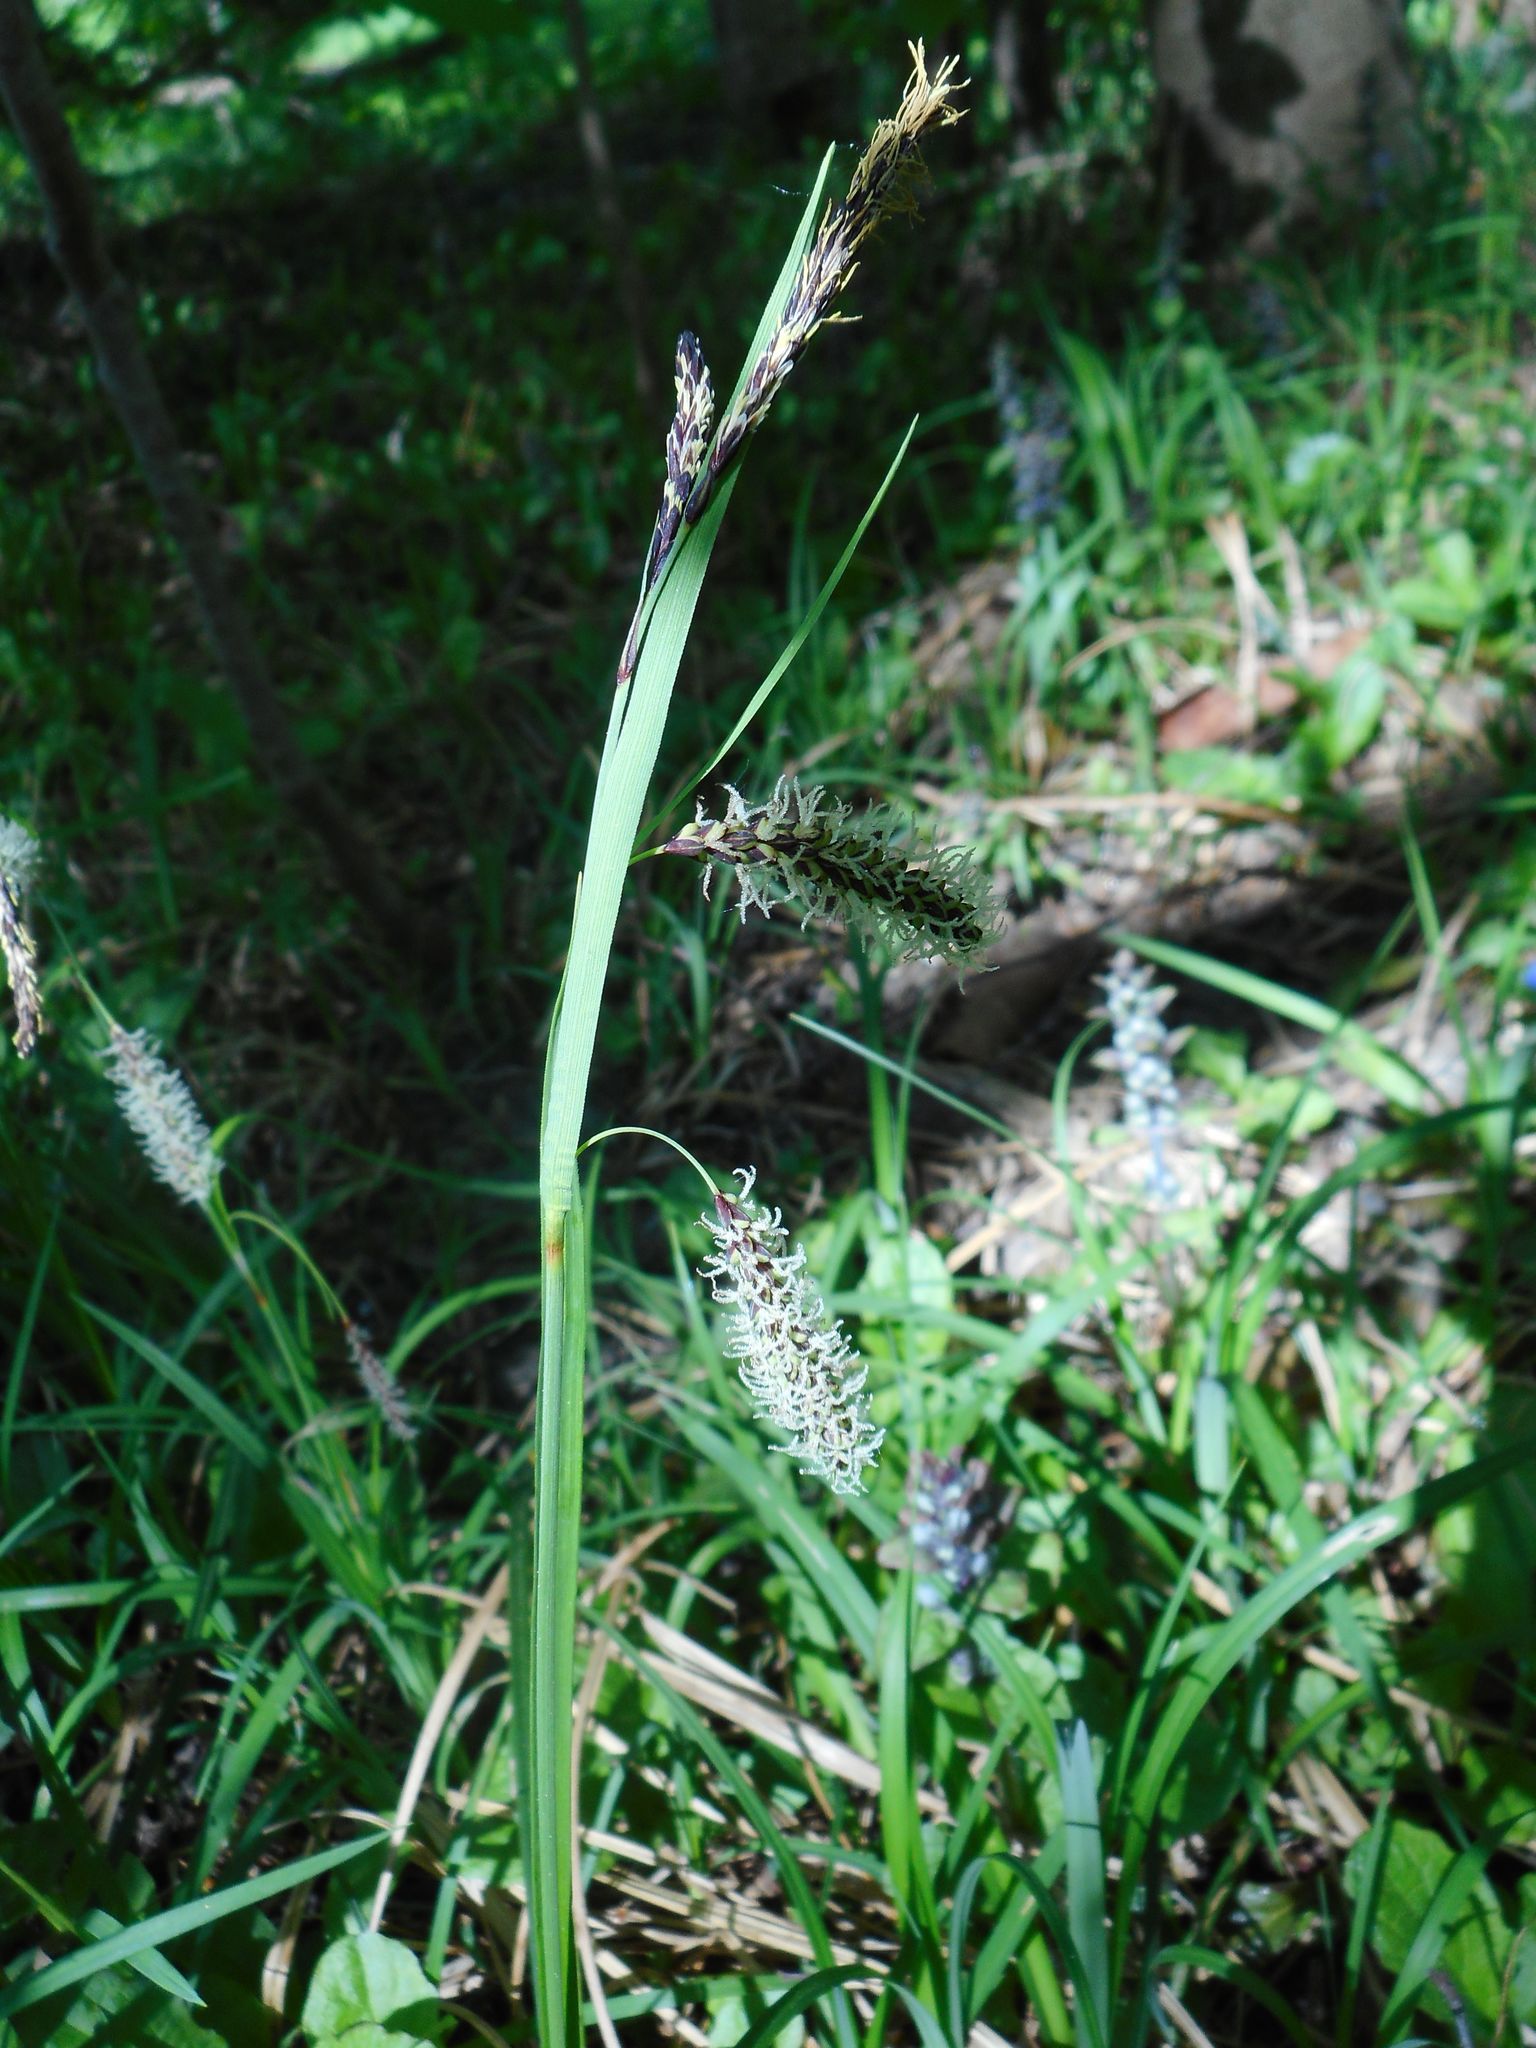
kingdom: Plantae
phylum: Tracheophyta
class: Liliopsida
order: Poales
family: Cyperaceae
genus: Carex
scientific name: Carex flacca
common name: Glaucous sedge
